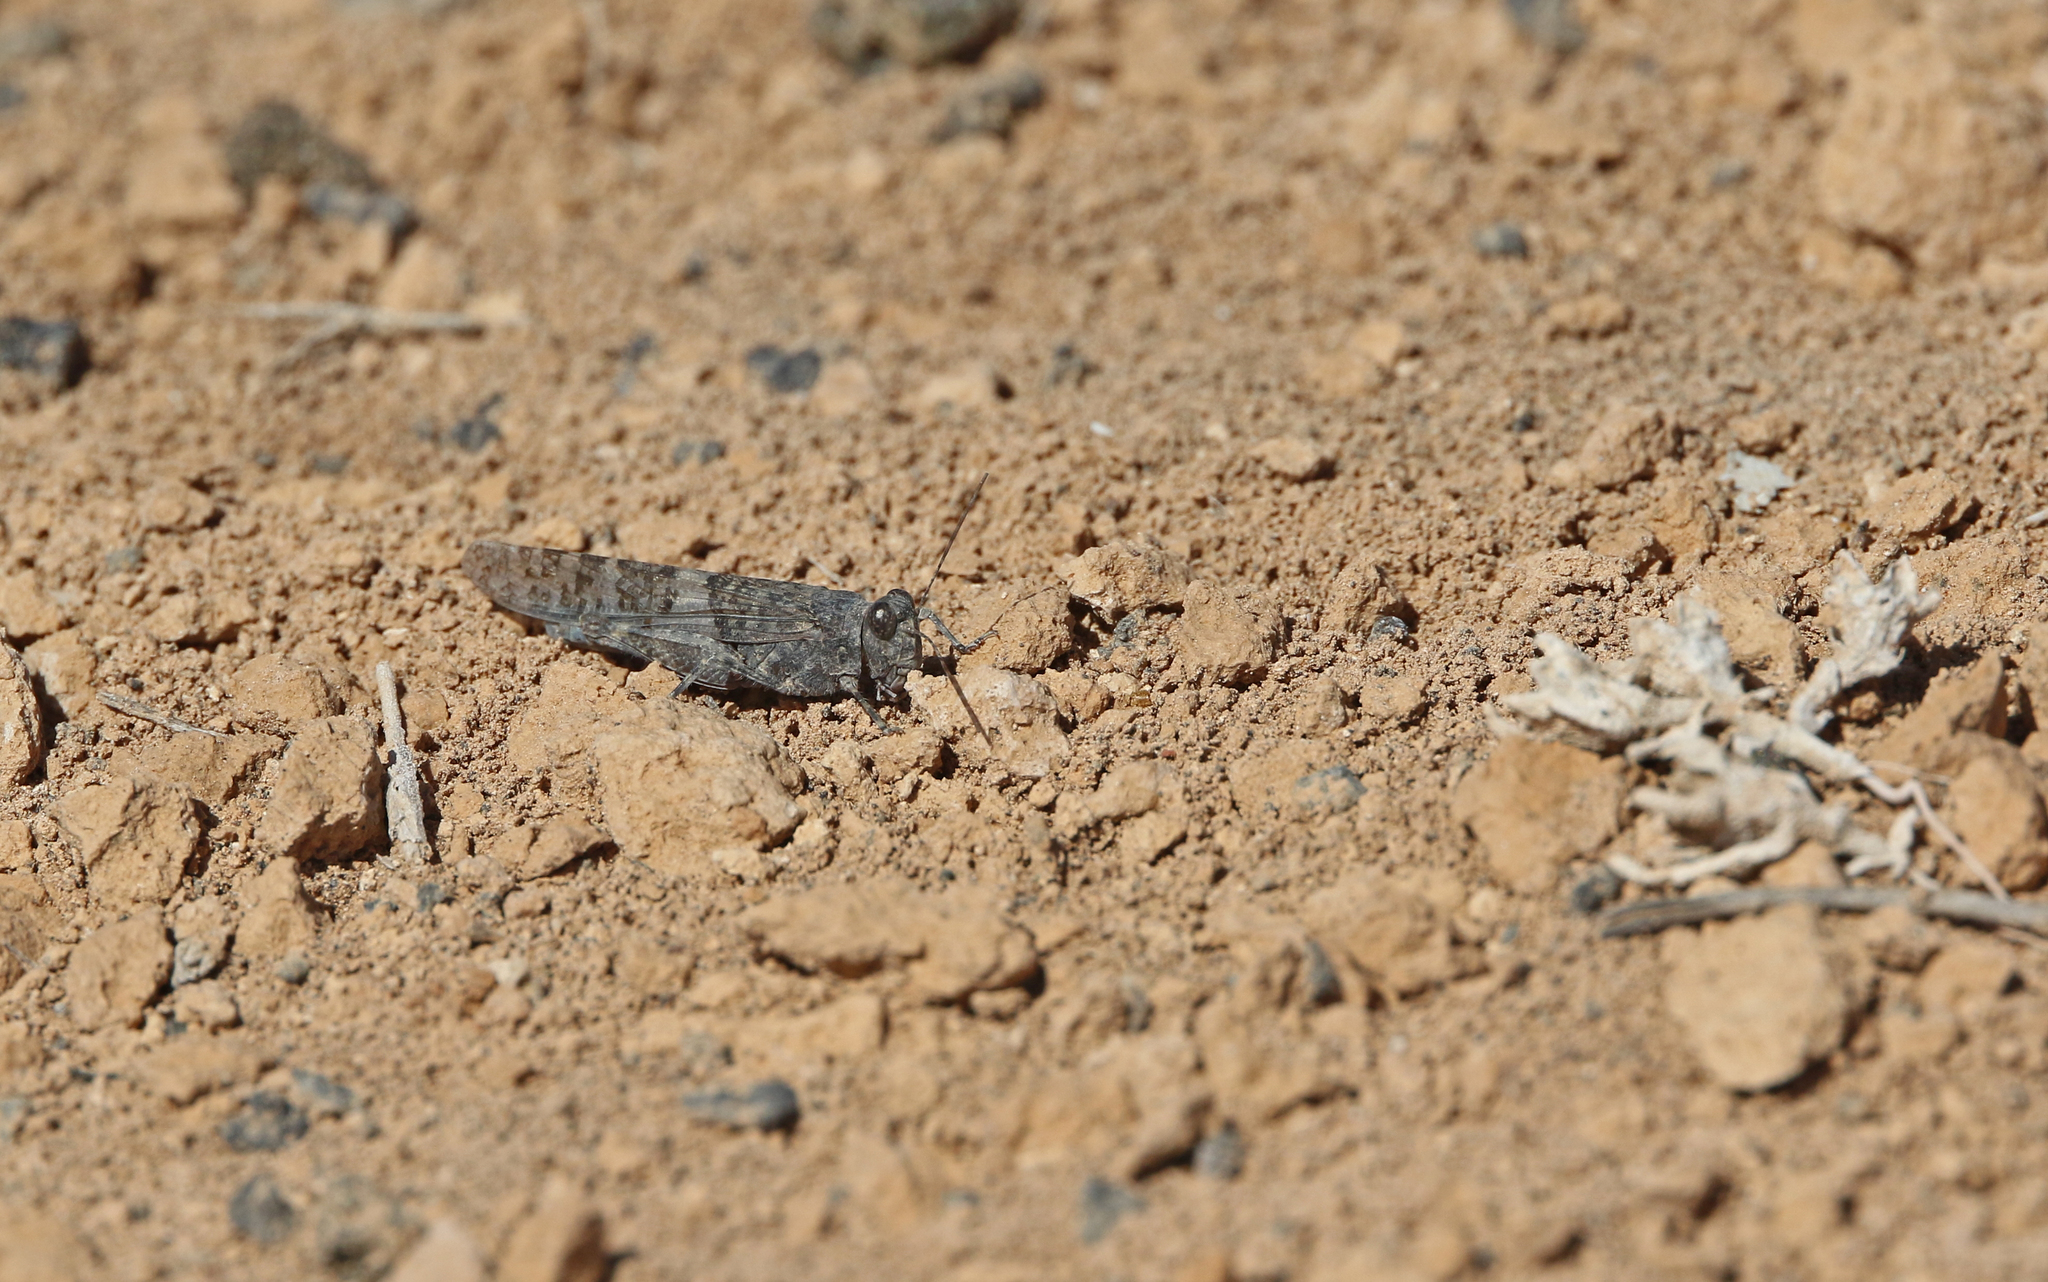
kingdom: Animalia
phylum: Arthropoda
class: Insecta
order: Orthoptera
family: Acrididae
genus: Sphingonotus
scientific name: Sphingonotus rubescens
